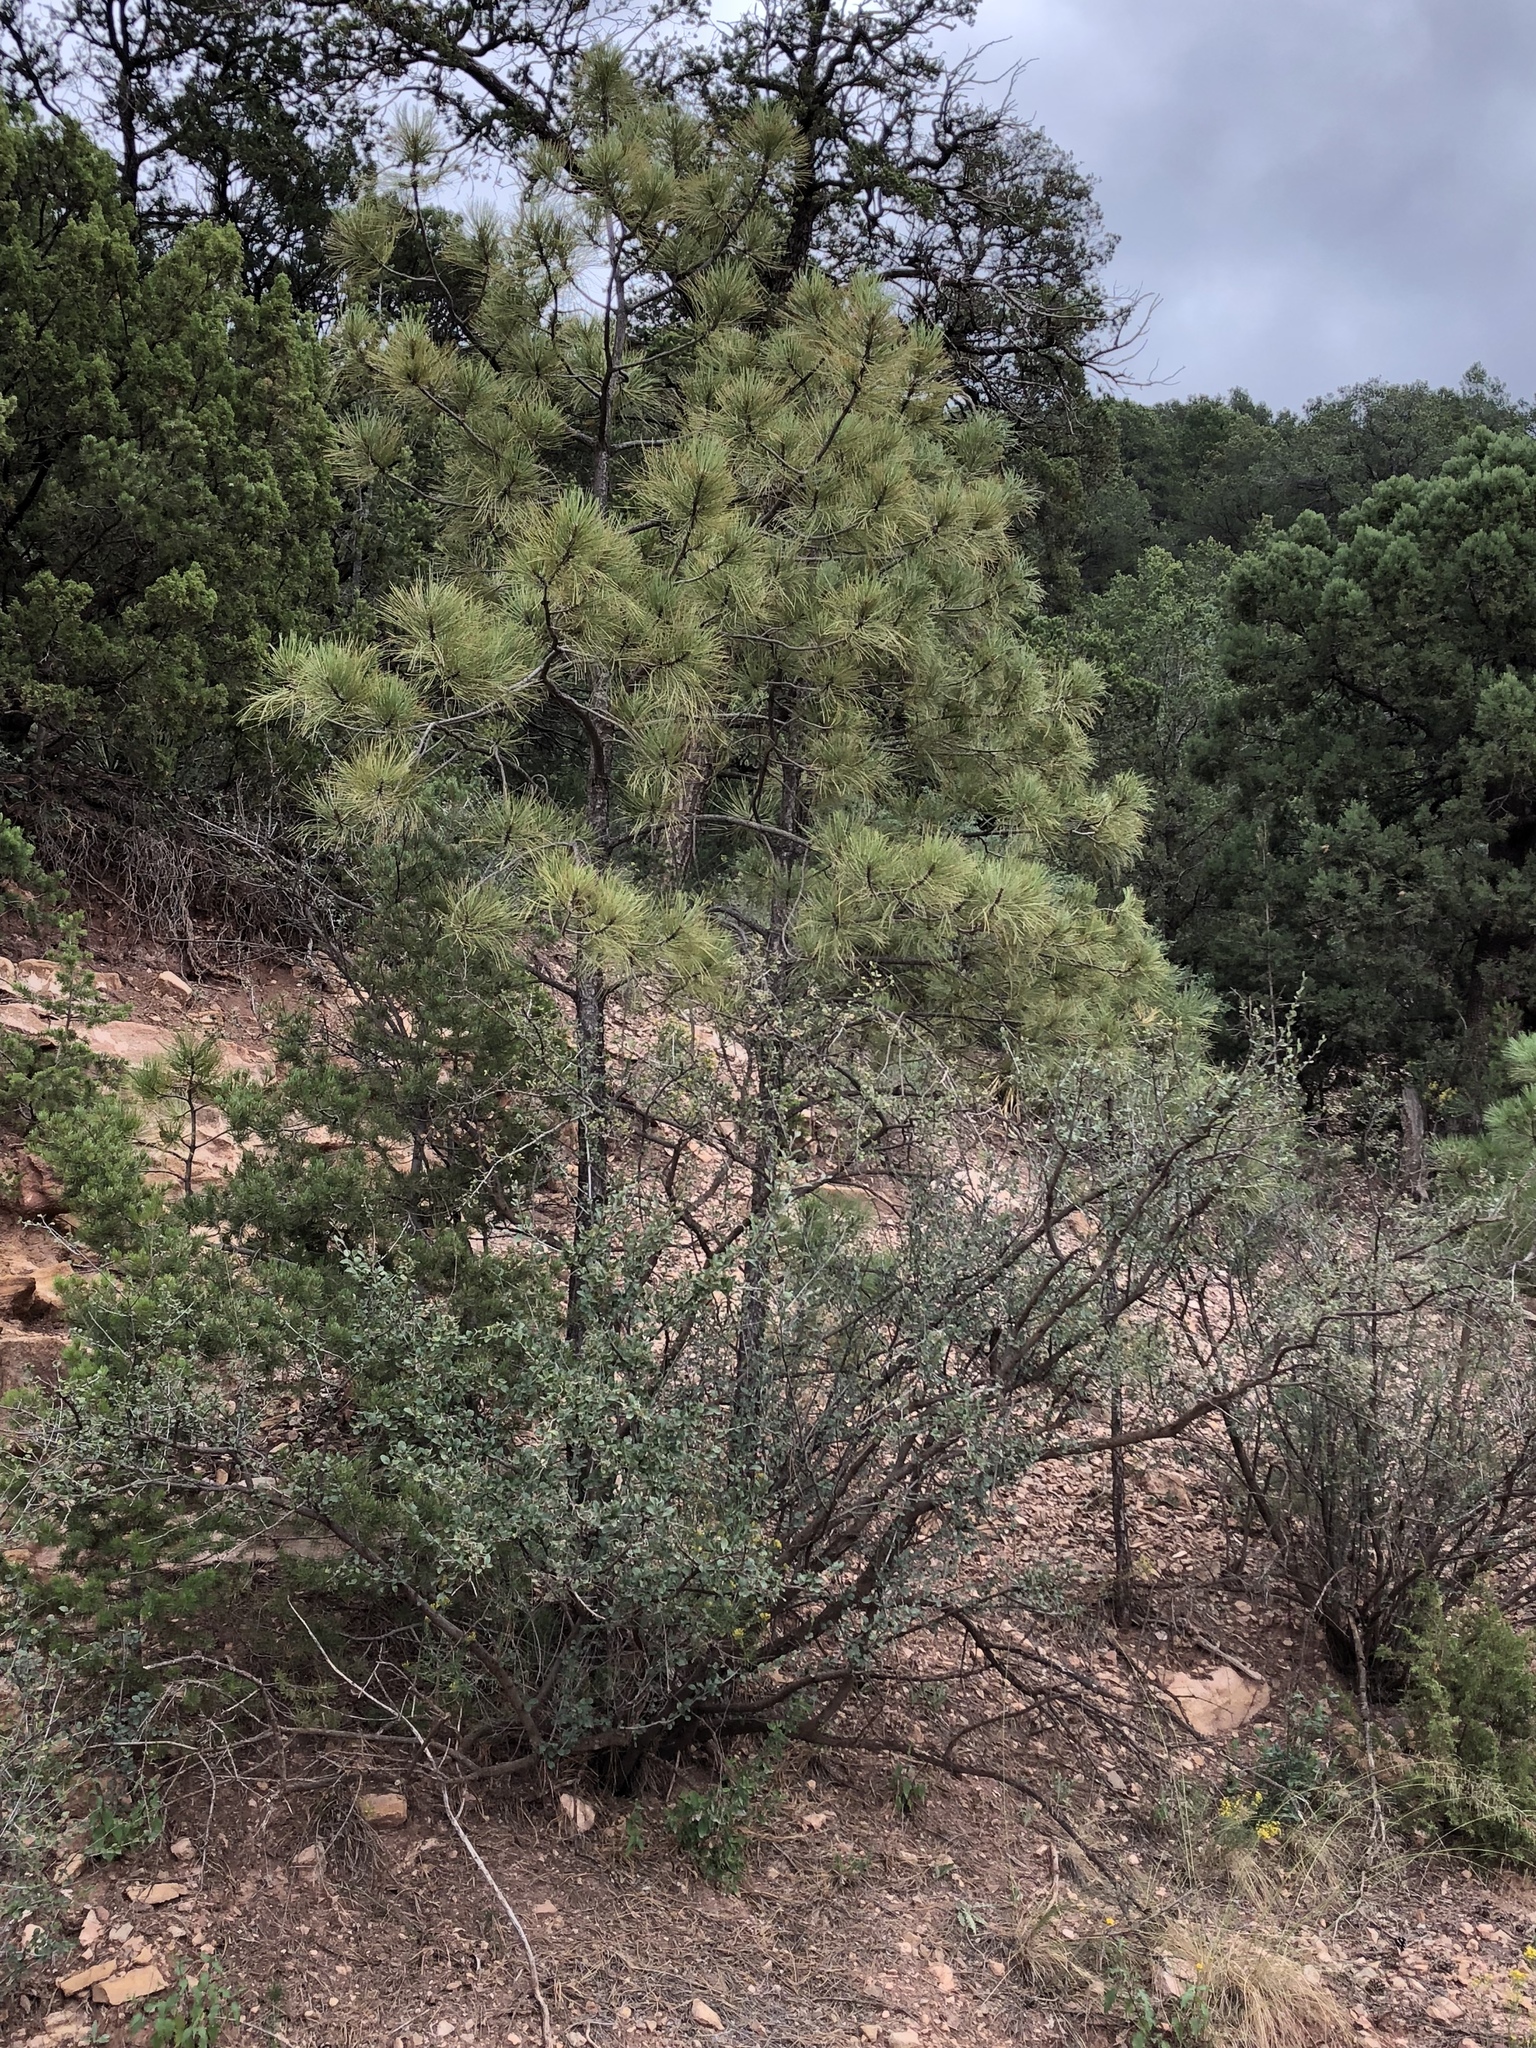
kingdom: Plantae
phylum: Tracheophyta
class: Pinopsida
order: Pinales
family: Pinaceae
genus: Pinus
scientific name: Pinus ponderosa
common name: Western yellow-pine
